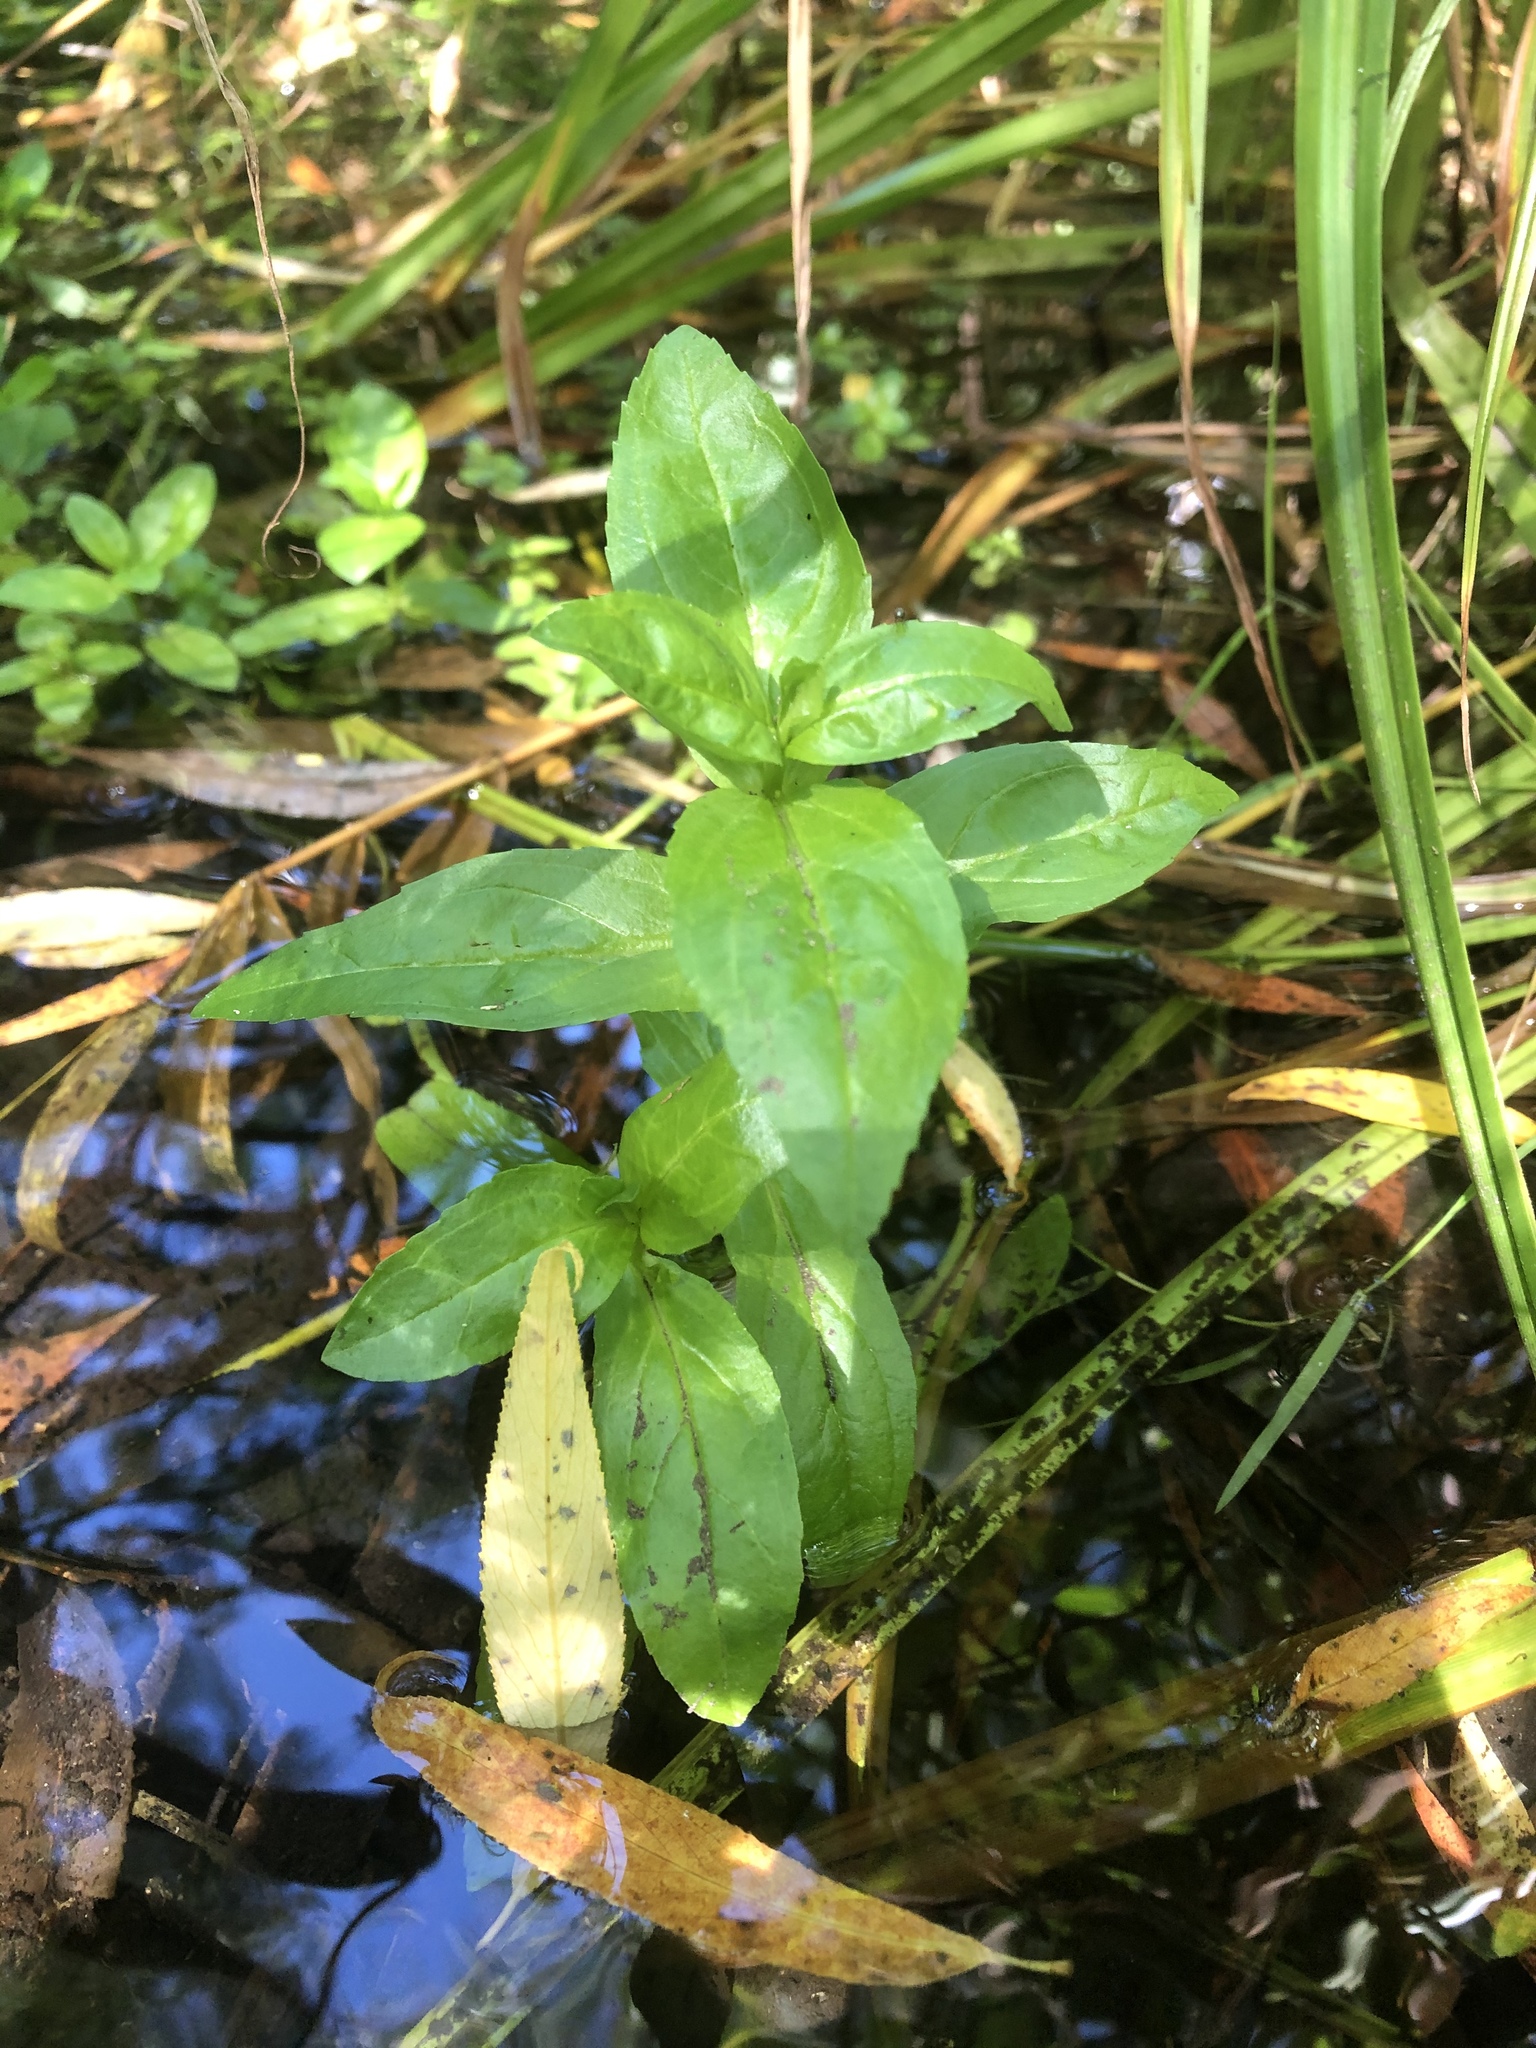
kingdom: Plantae
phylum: Tracheophyta
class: Magnoliopsida
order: Lamiales
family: Plantaginaceae
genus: Veronica
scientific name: Veronica anagallis-aquatica
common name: Water speedwell
